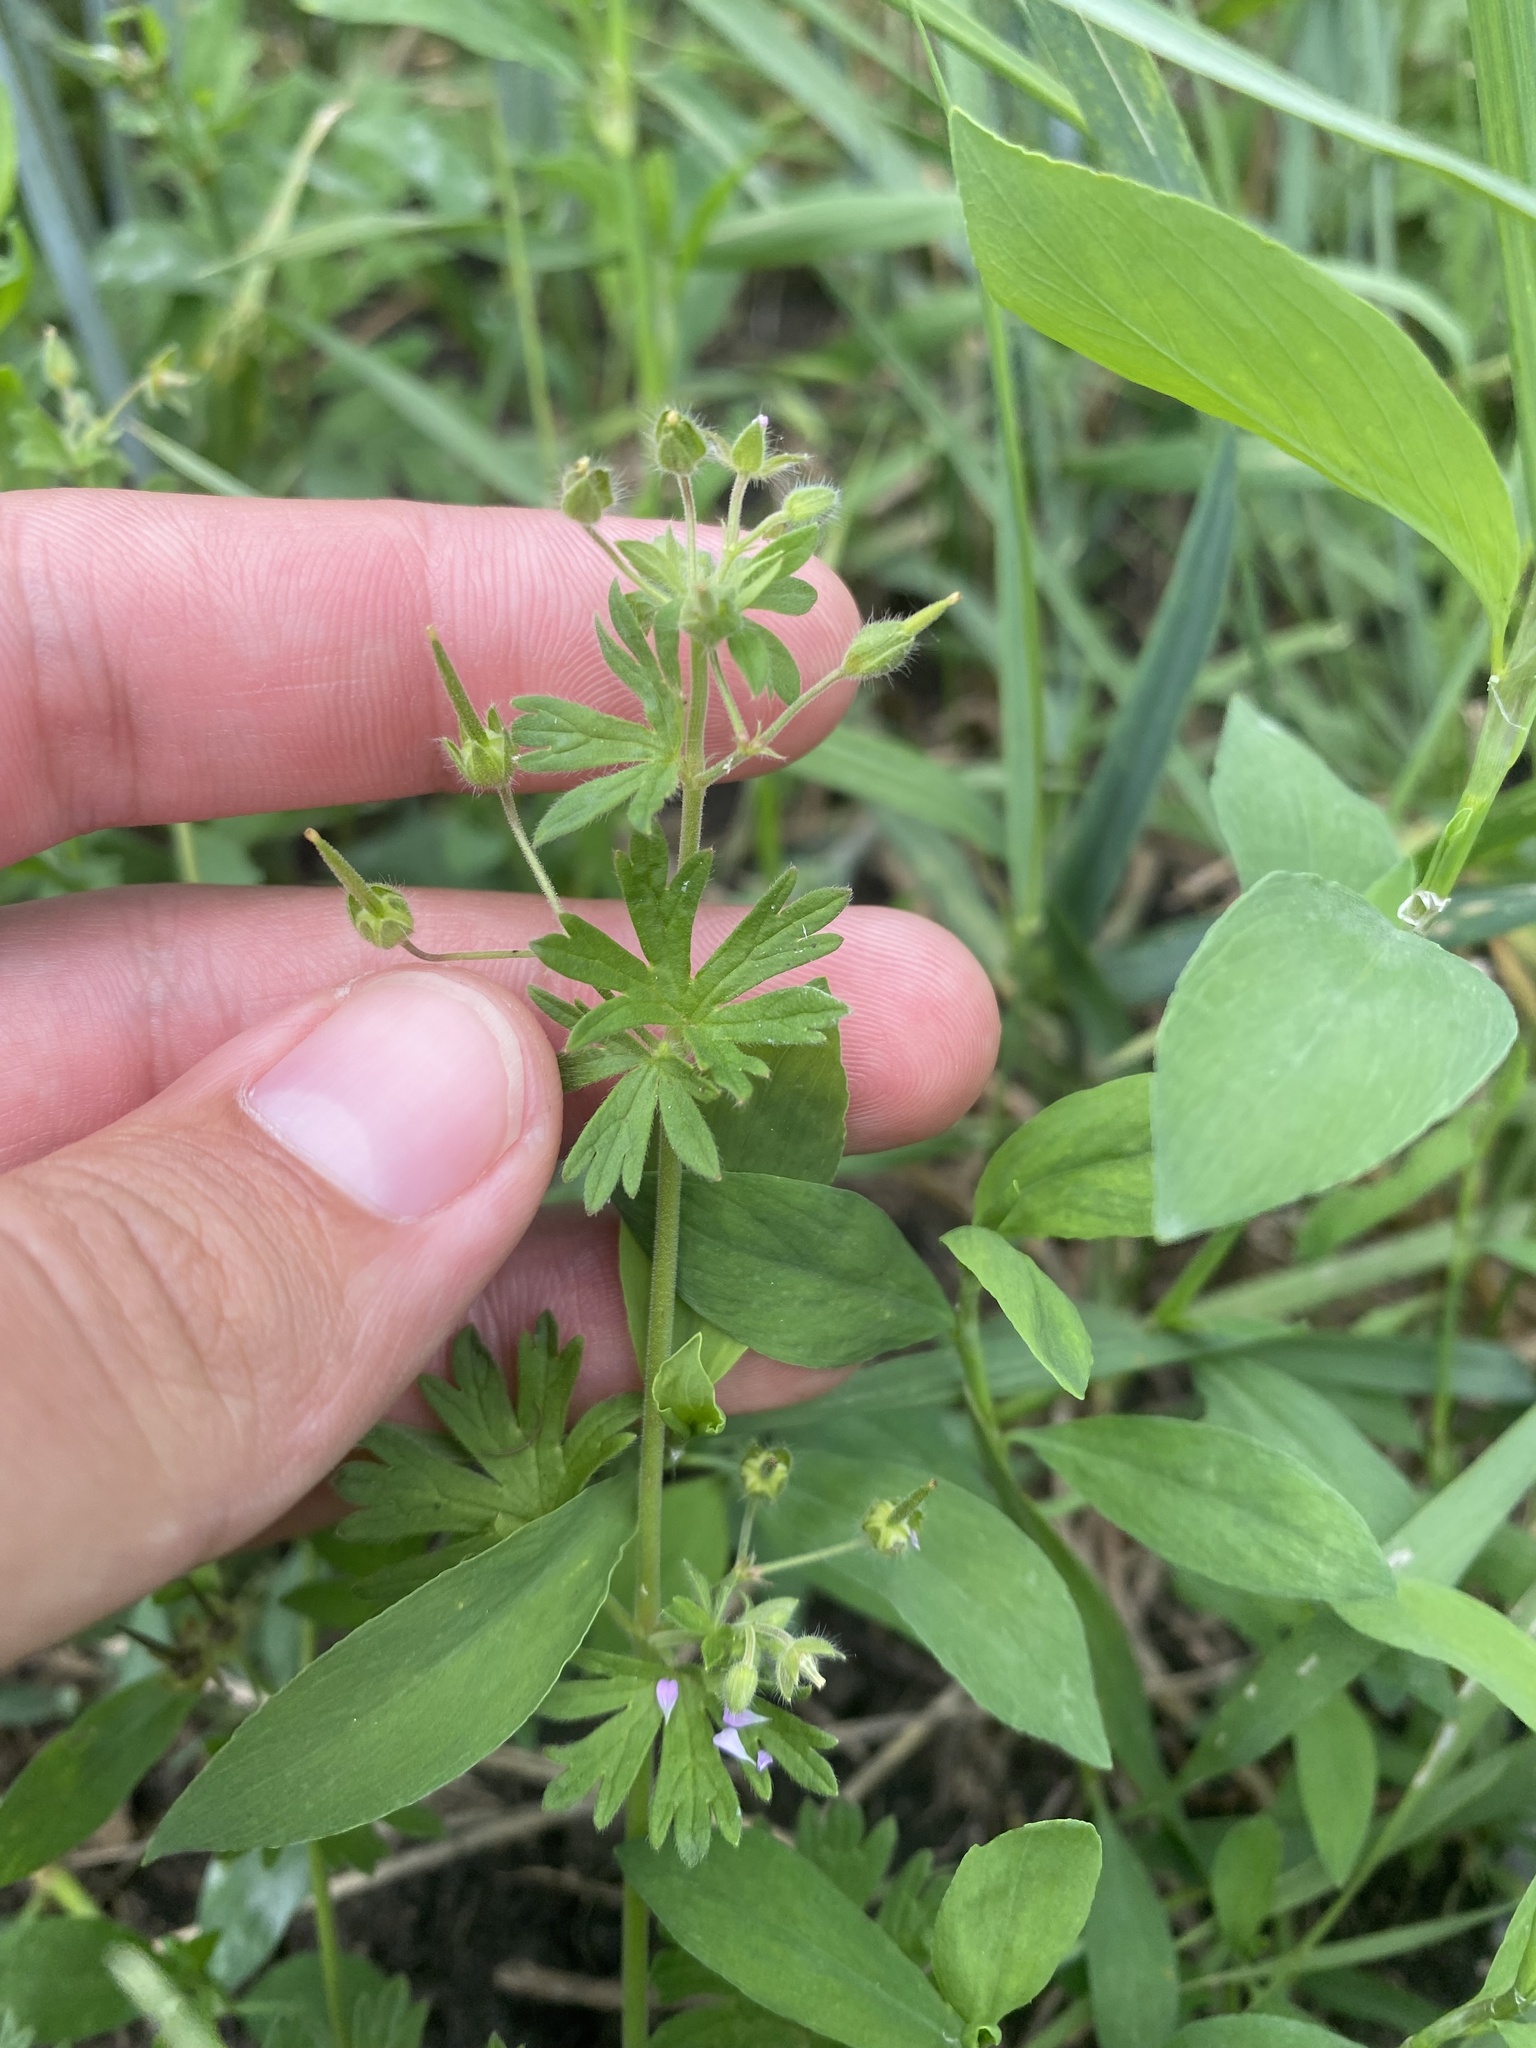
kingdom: Plantae
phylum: Tracheophyta
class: Magnoliopsida
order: Geraniales
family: Geraniaceae
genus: Geranium
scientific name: Geranium pusillum
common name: Small geranium
